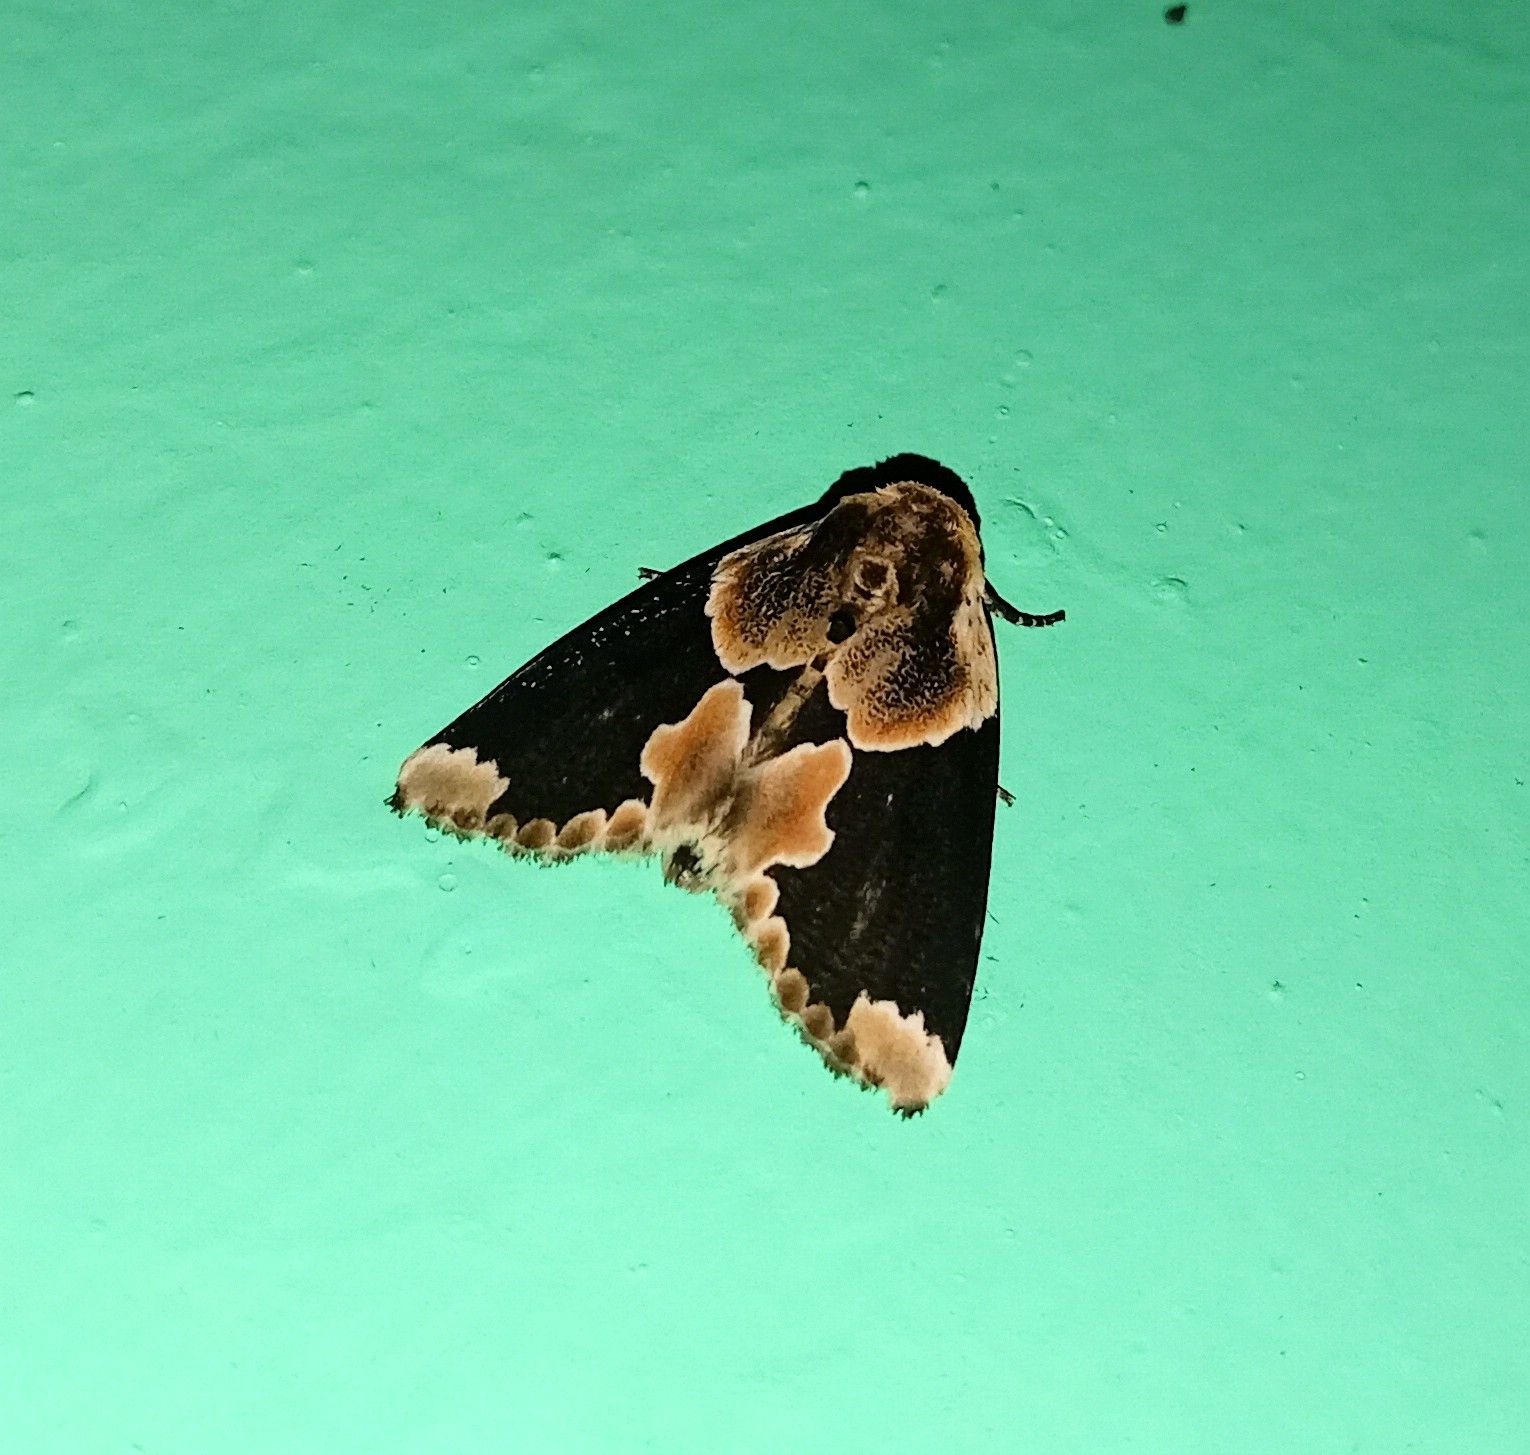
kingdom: Animalia
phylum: Arthropoda
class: Insecta
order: Lepidoptera
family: Drepanidae
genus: Thyatira
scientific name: Thyatira batis
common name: Peach blossom
